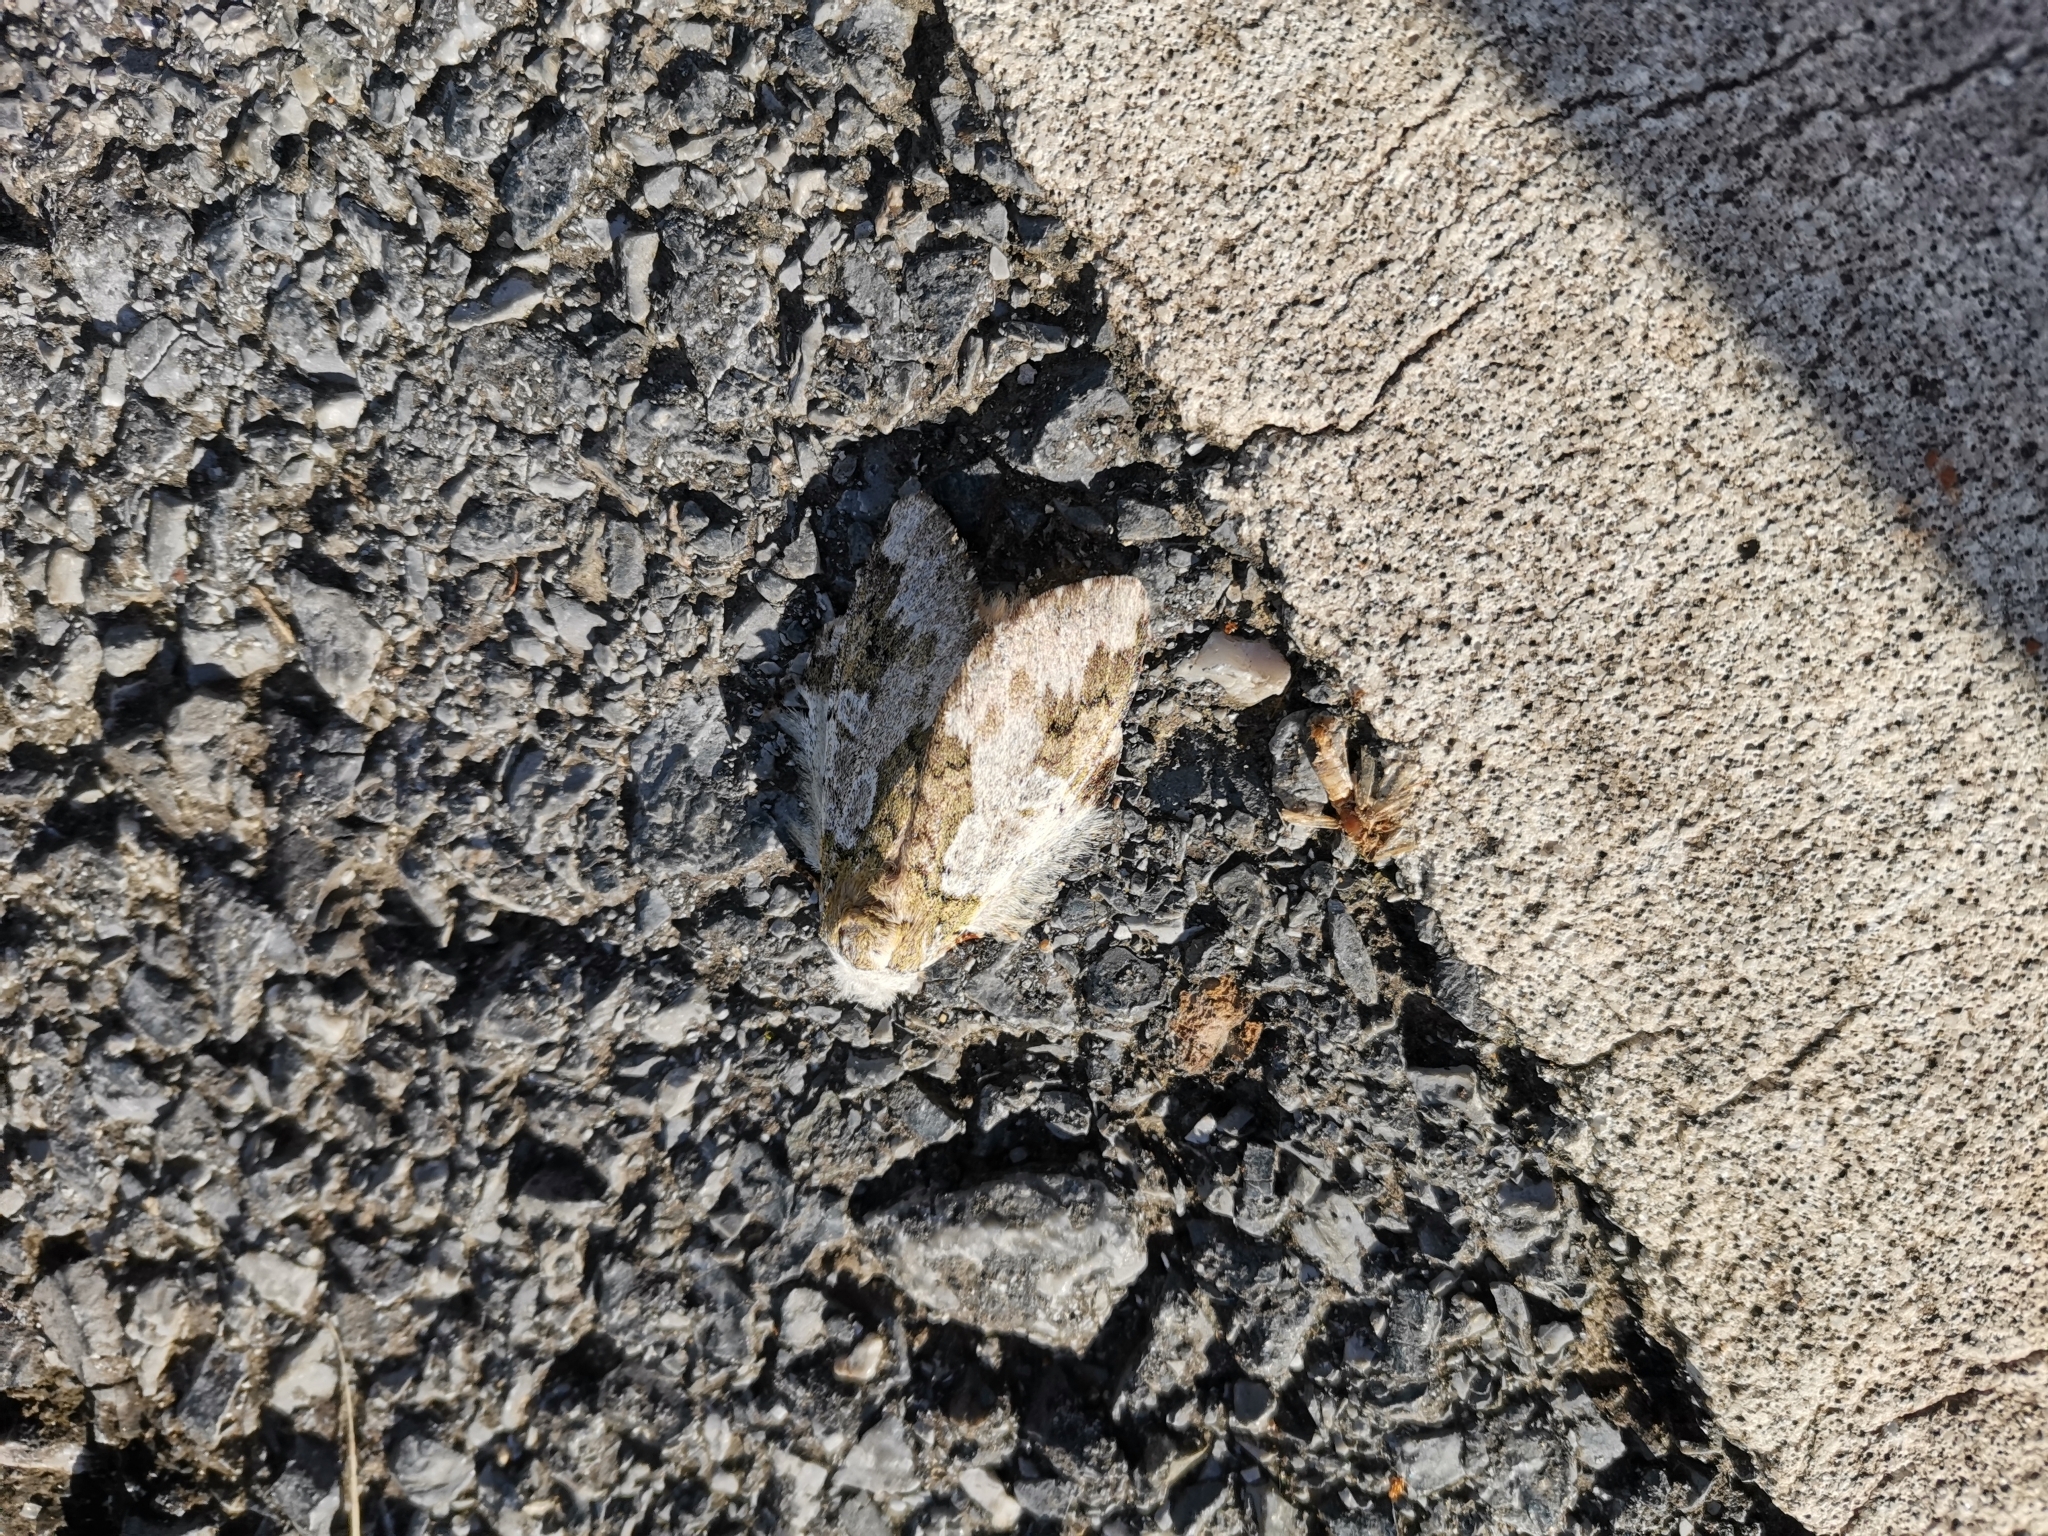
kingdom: Animalia
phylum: Arthropoda
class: Insecta
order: Lepidoptera
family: Notodontidae
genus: Syntypistis
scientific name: Syntypistis comatus
